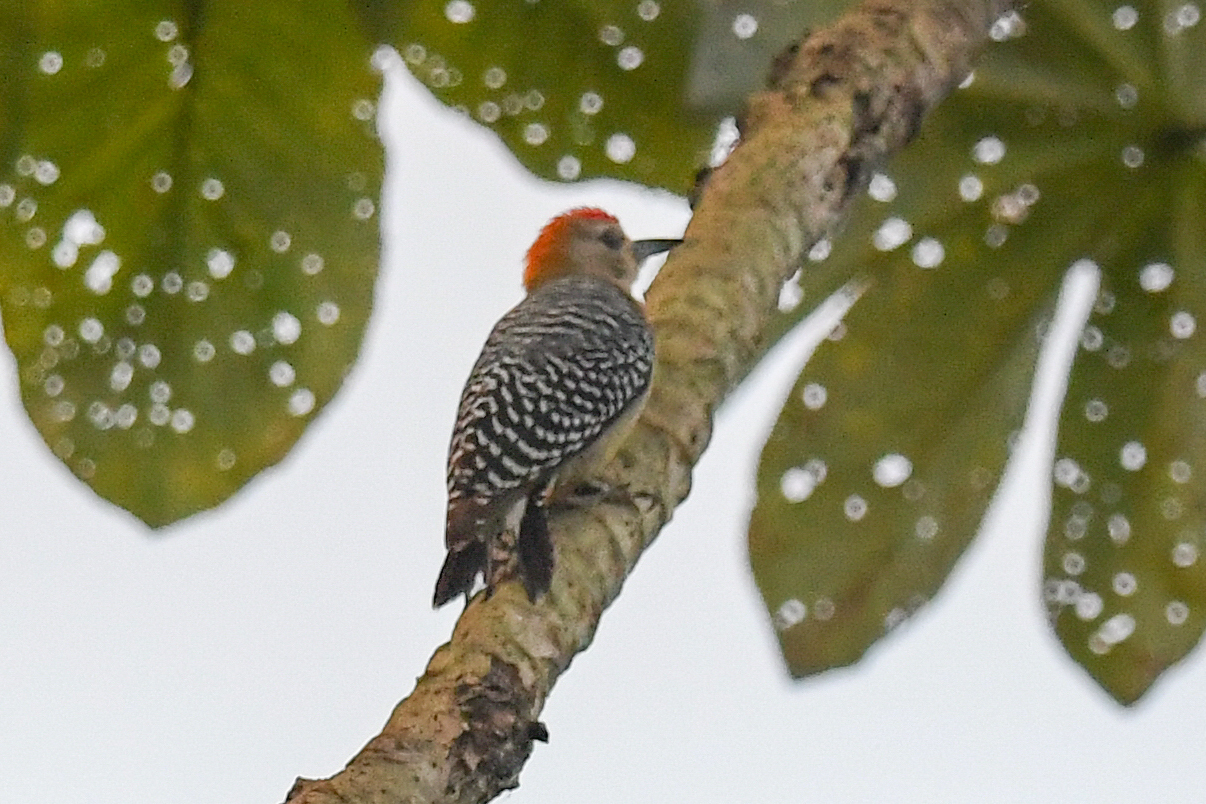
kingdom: Animalia
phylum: Chordata
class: Aves
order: Piciformes
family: Picidae
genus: Melanerpes
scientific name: Melanerpes hoffmannii
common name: Hoffmann's woodpecker
